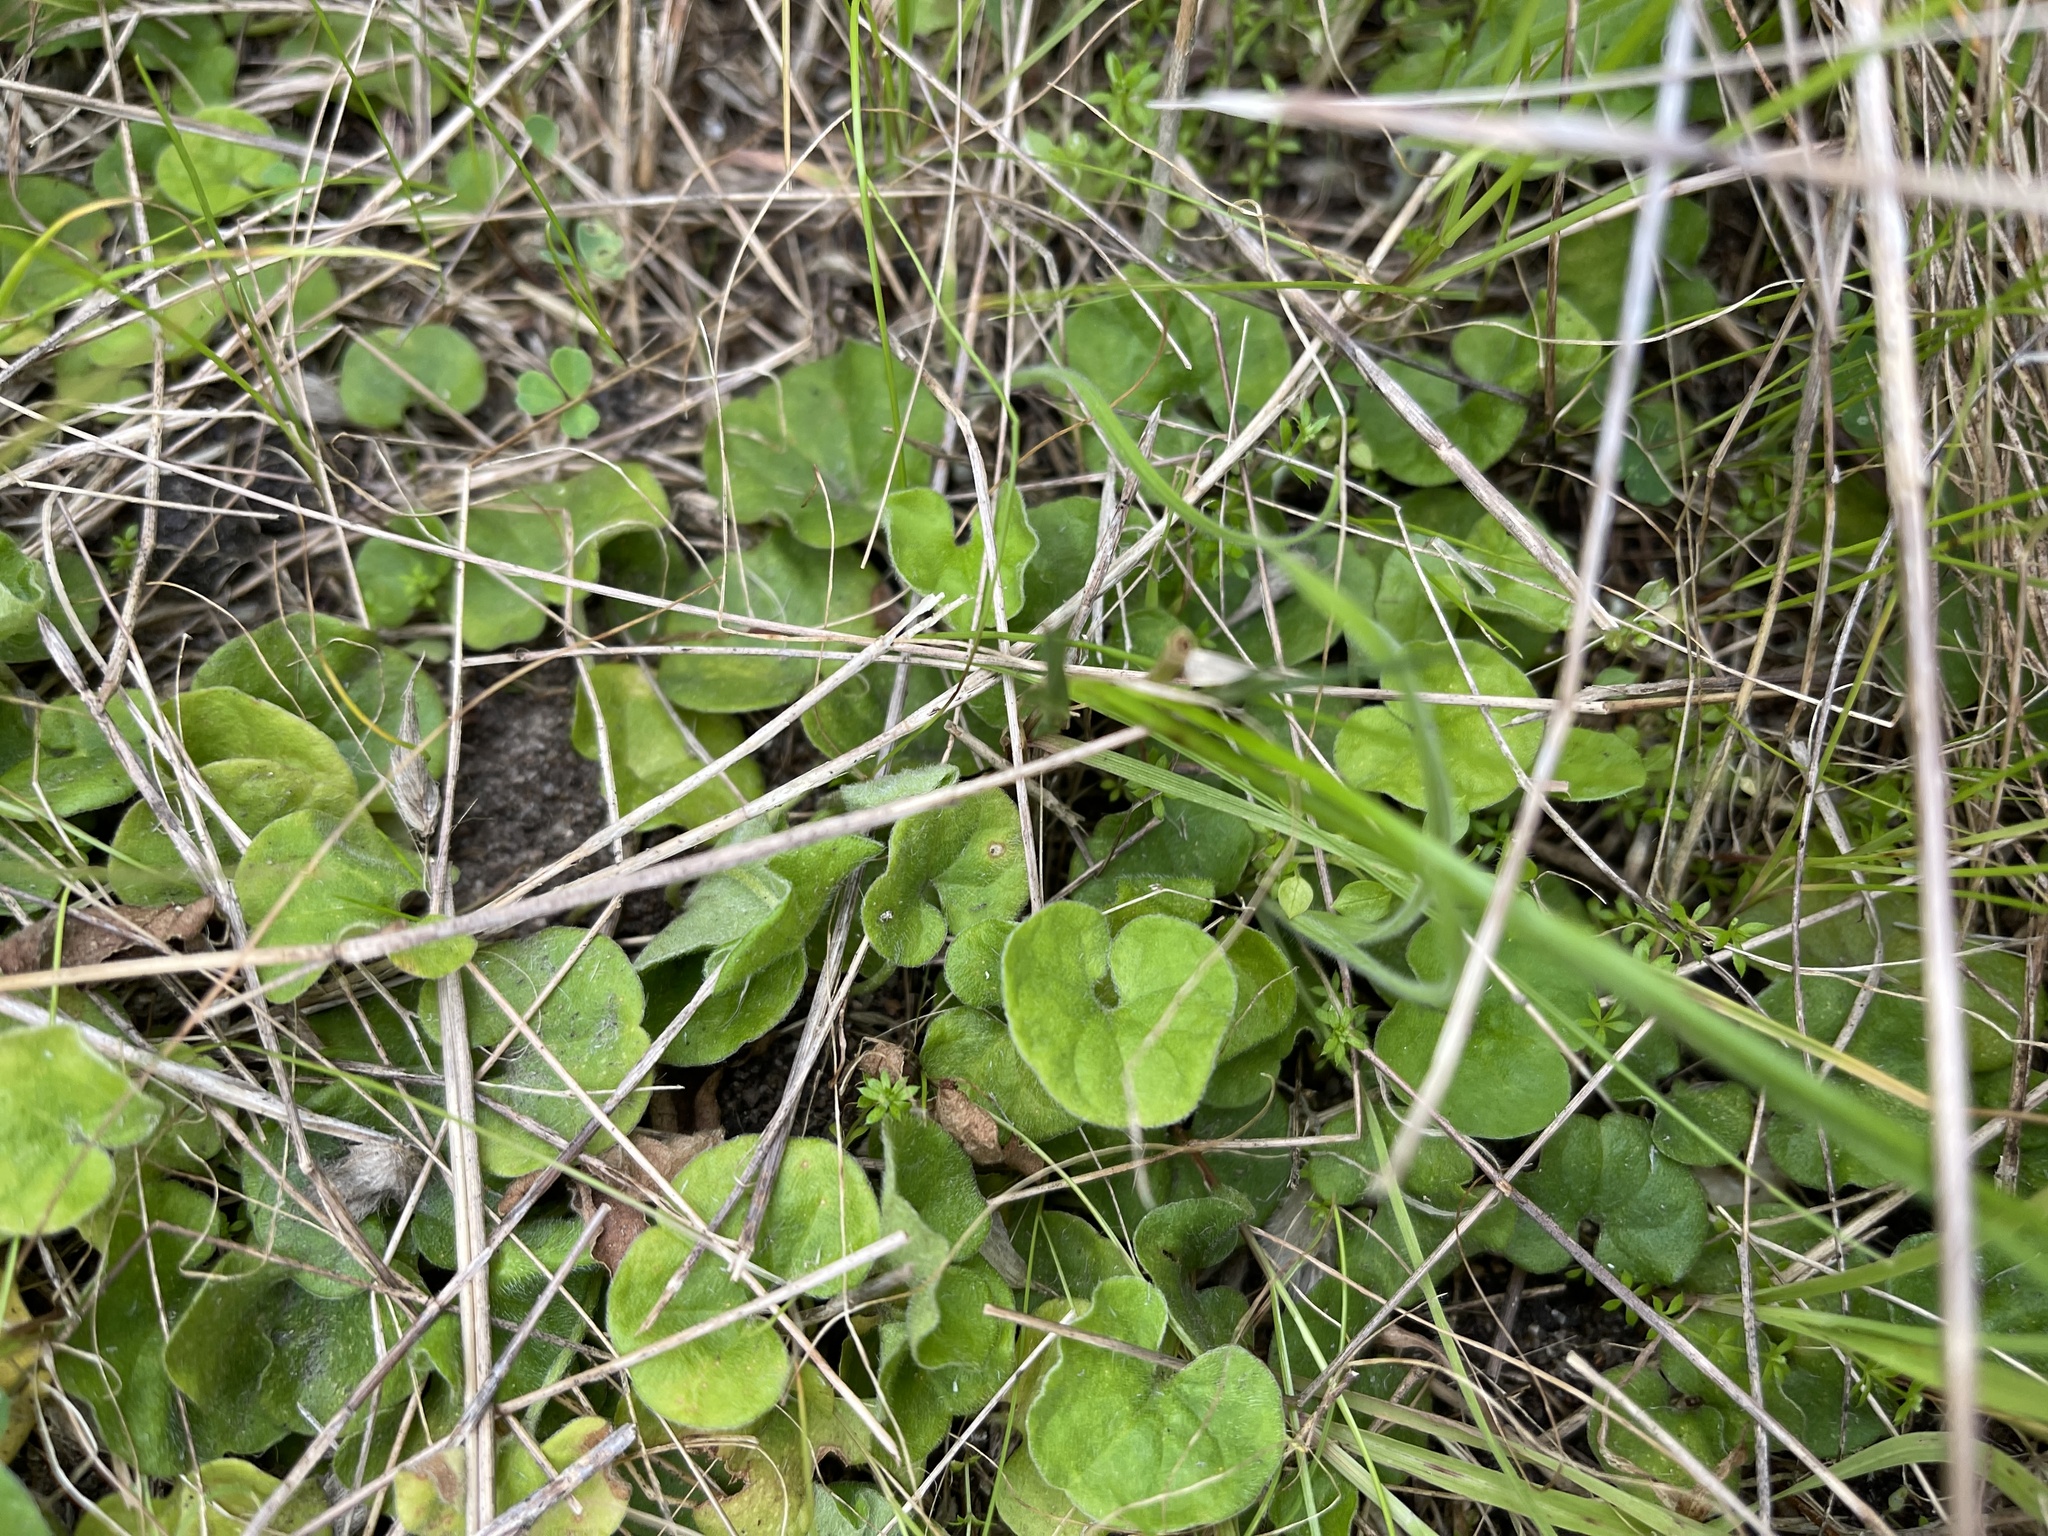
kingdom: Plantae
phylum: Tracheophyta
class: Magnoliopsida
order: Solanales
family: Convolvulaceae
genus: Dichondra
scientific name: Dichondra repens
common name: Kidneyweed
